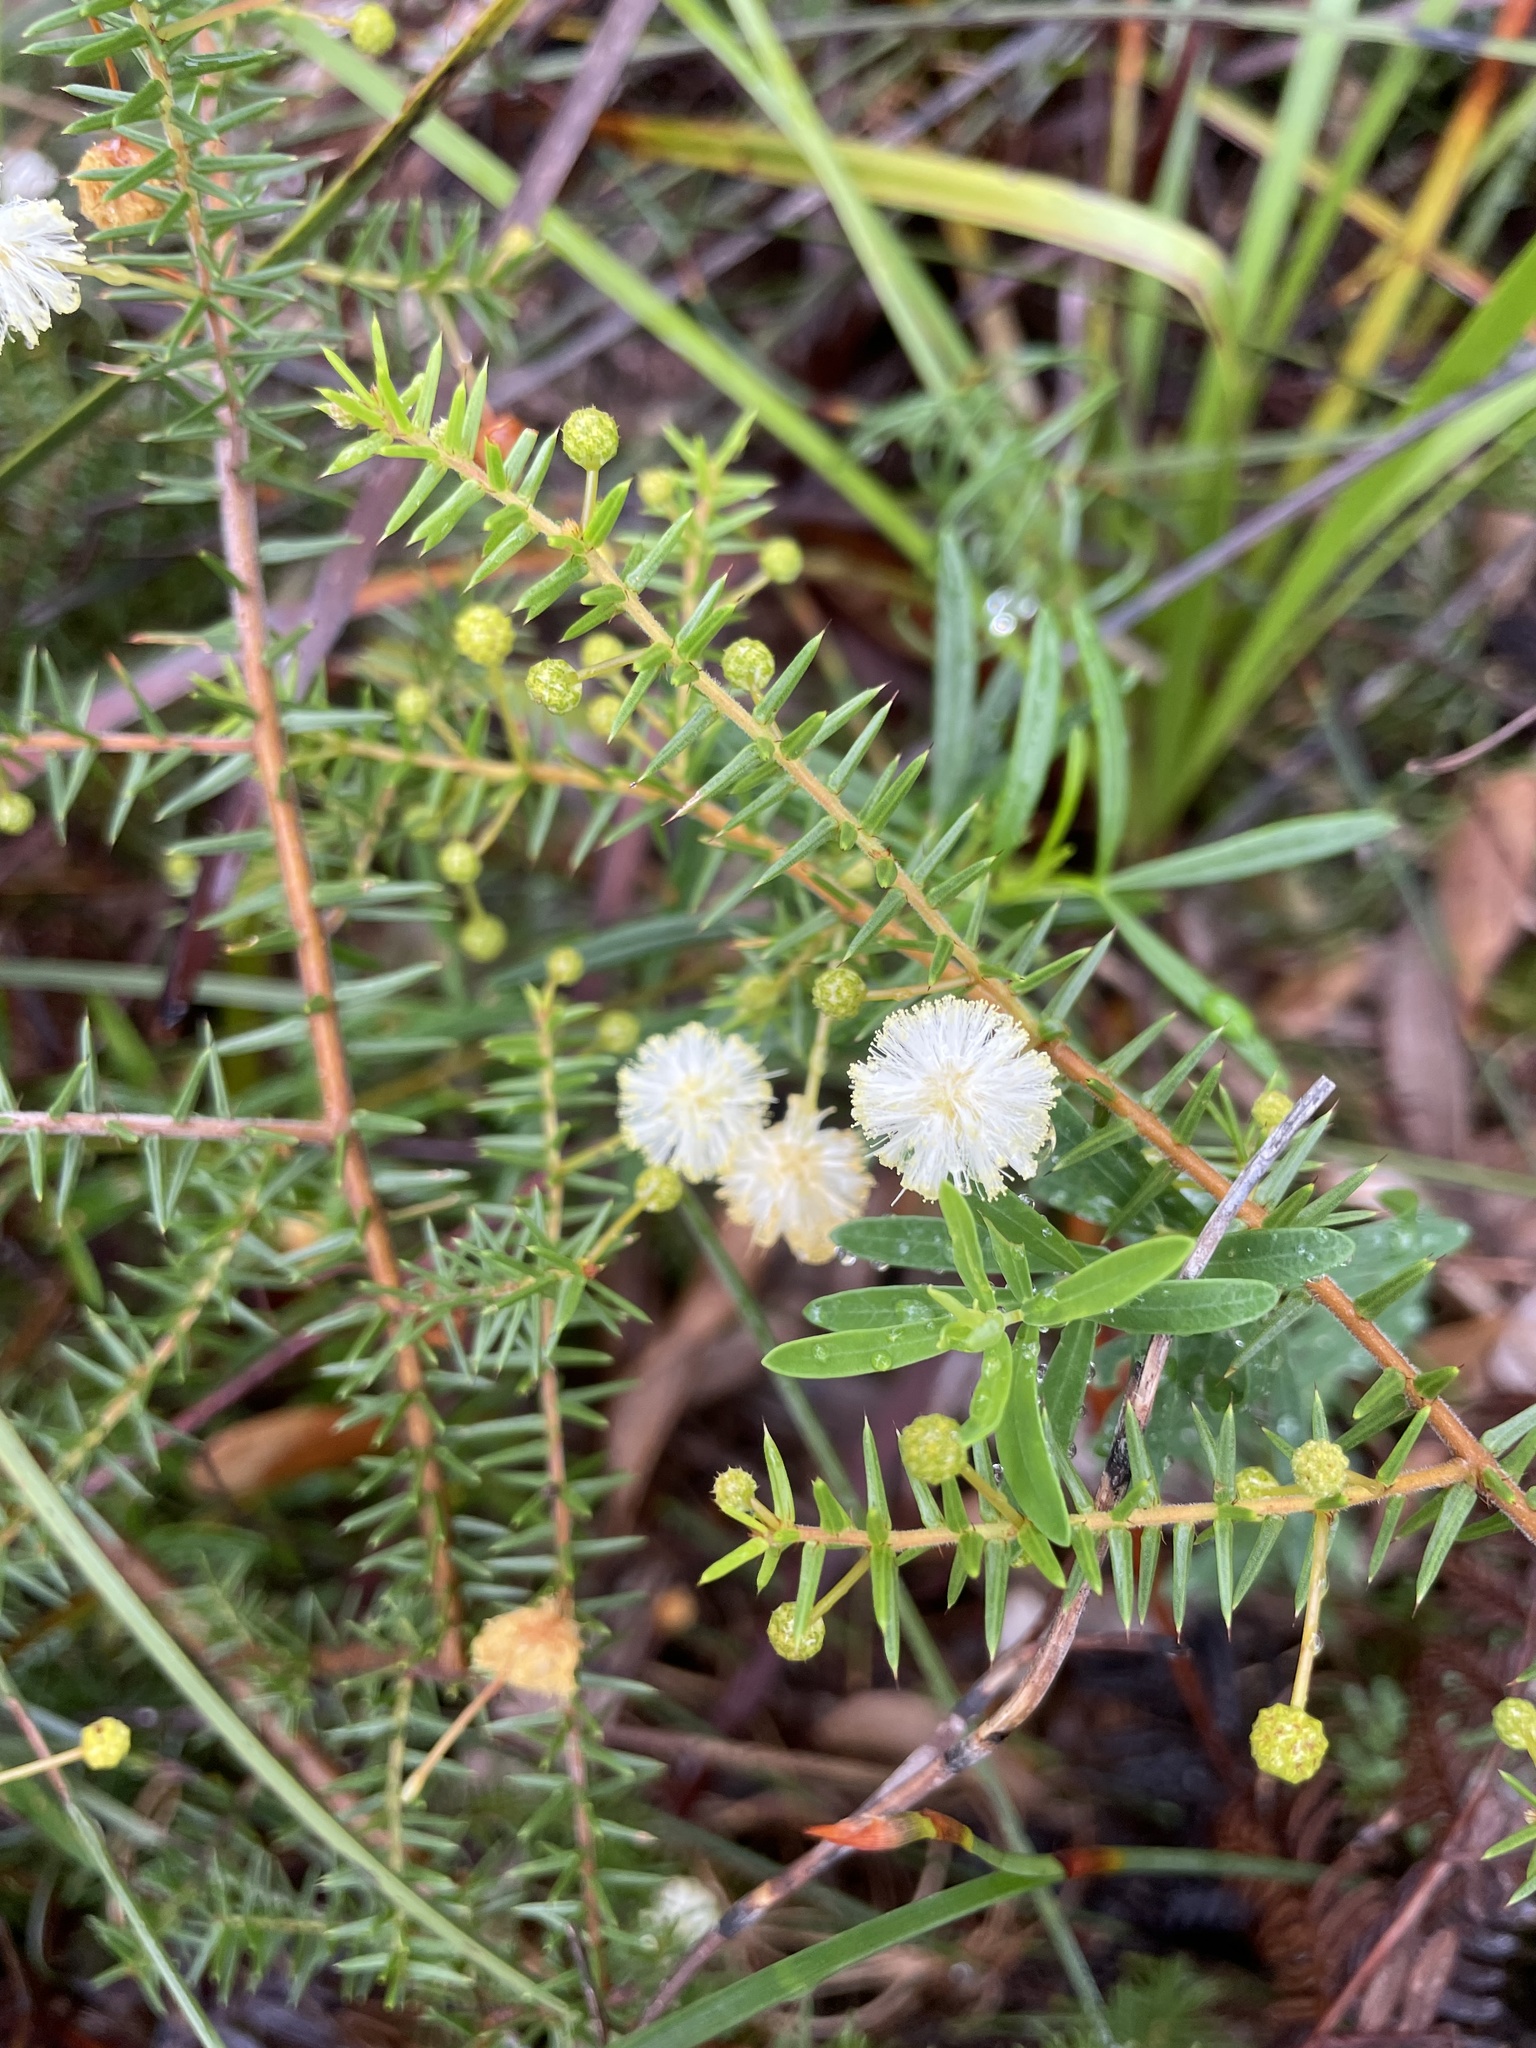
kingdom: Plantae
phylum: Tracheophyta
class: Magnoliopsida
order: Fabales
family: Fabaceae
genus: Acacia
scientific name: Acacia ulicifolia
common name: Juniper wattle
